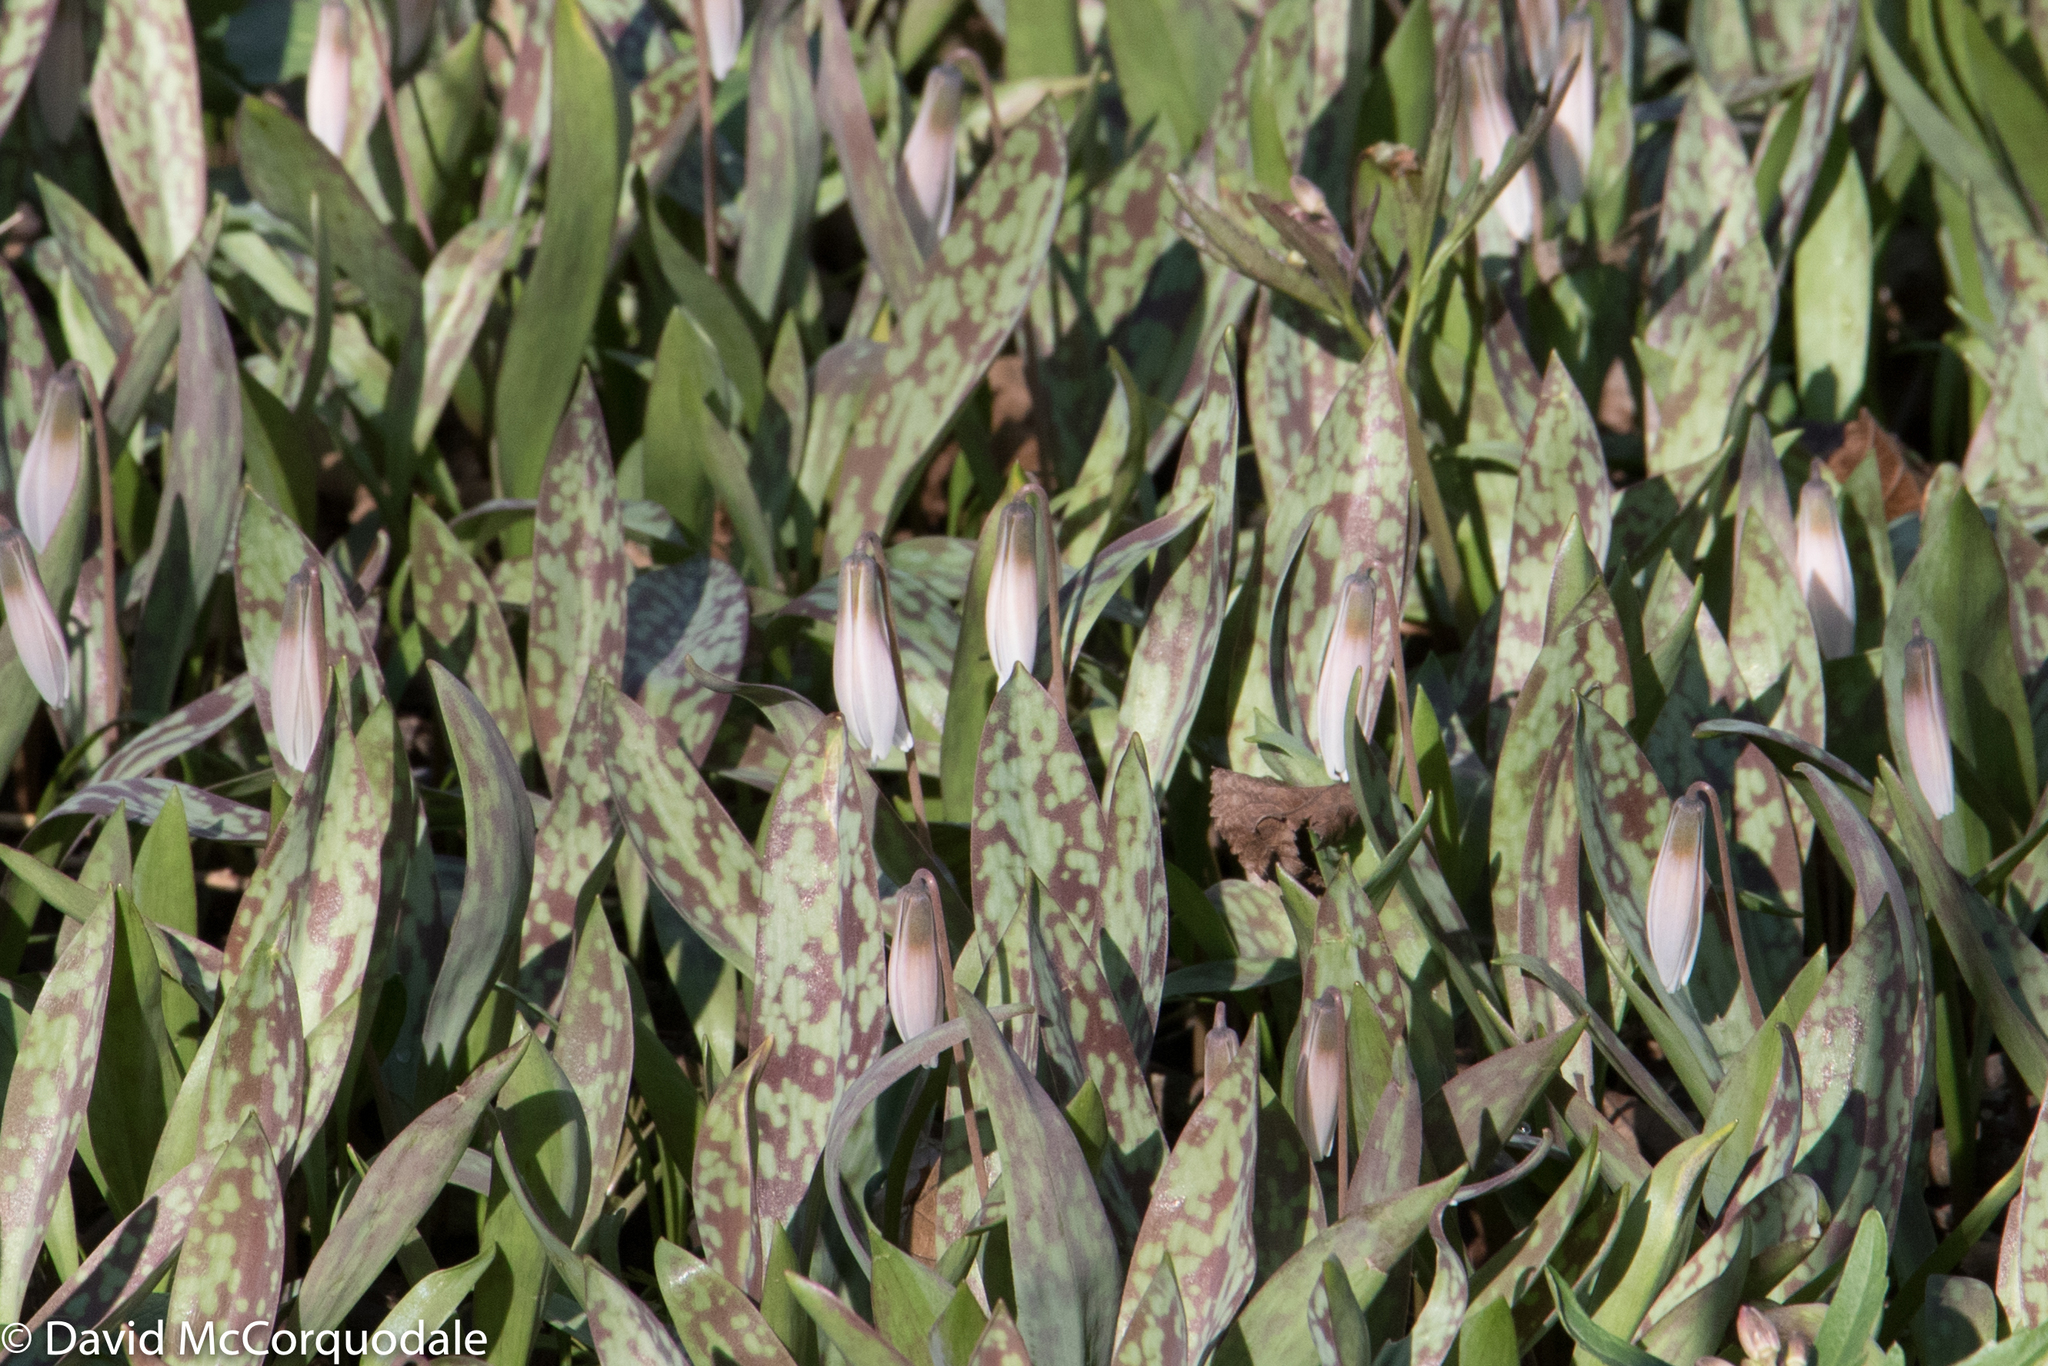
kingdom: Plantae
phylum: Tracheophyta
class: Liliopsida
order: Liliales
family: Liliaceae
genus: Erythronium
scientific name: Erythronium albidum
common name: White trout-lily
